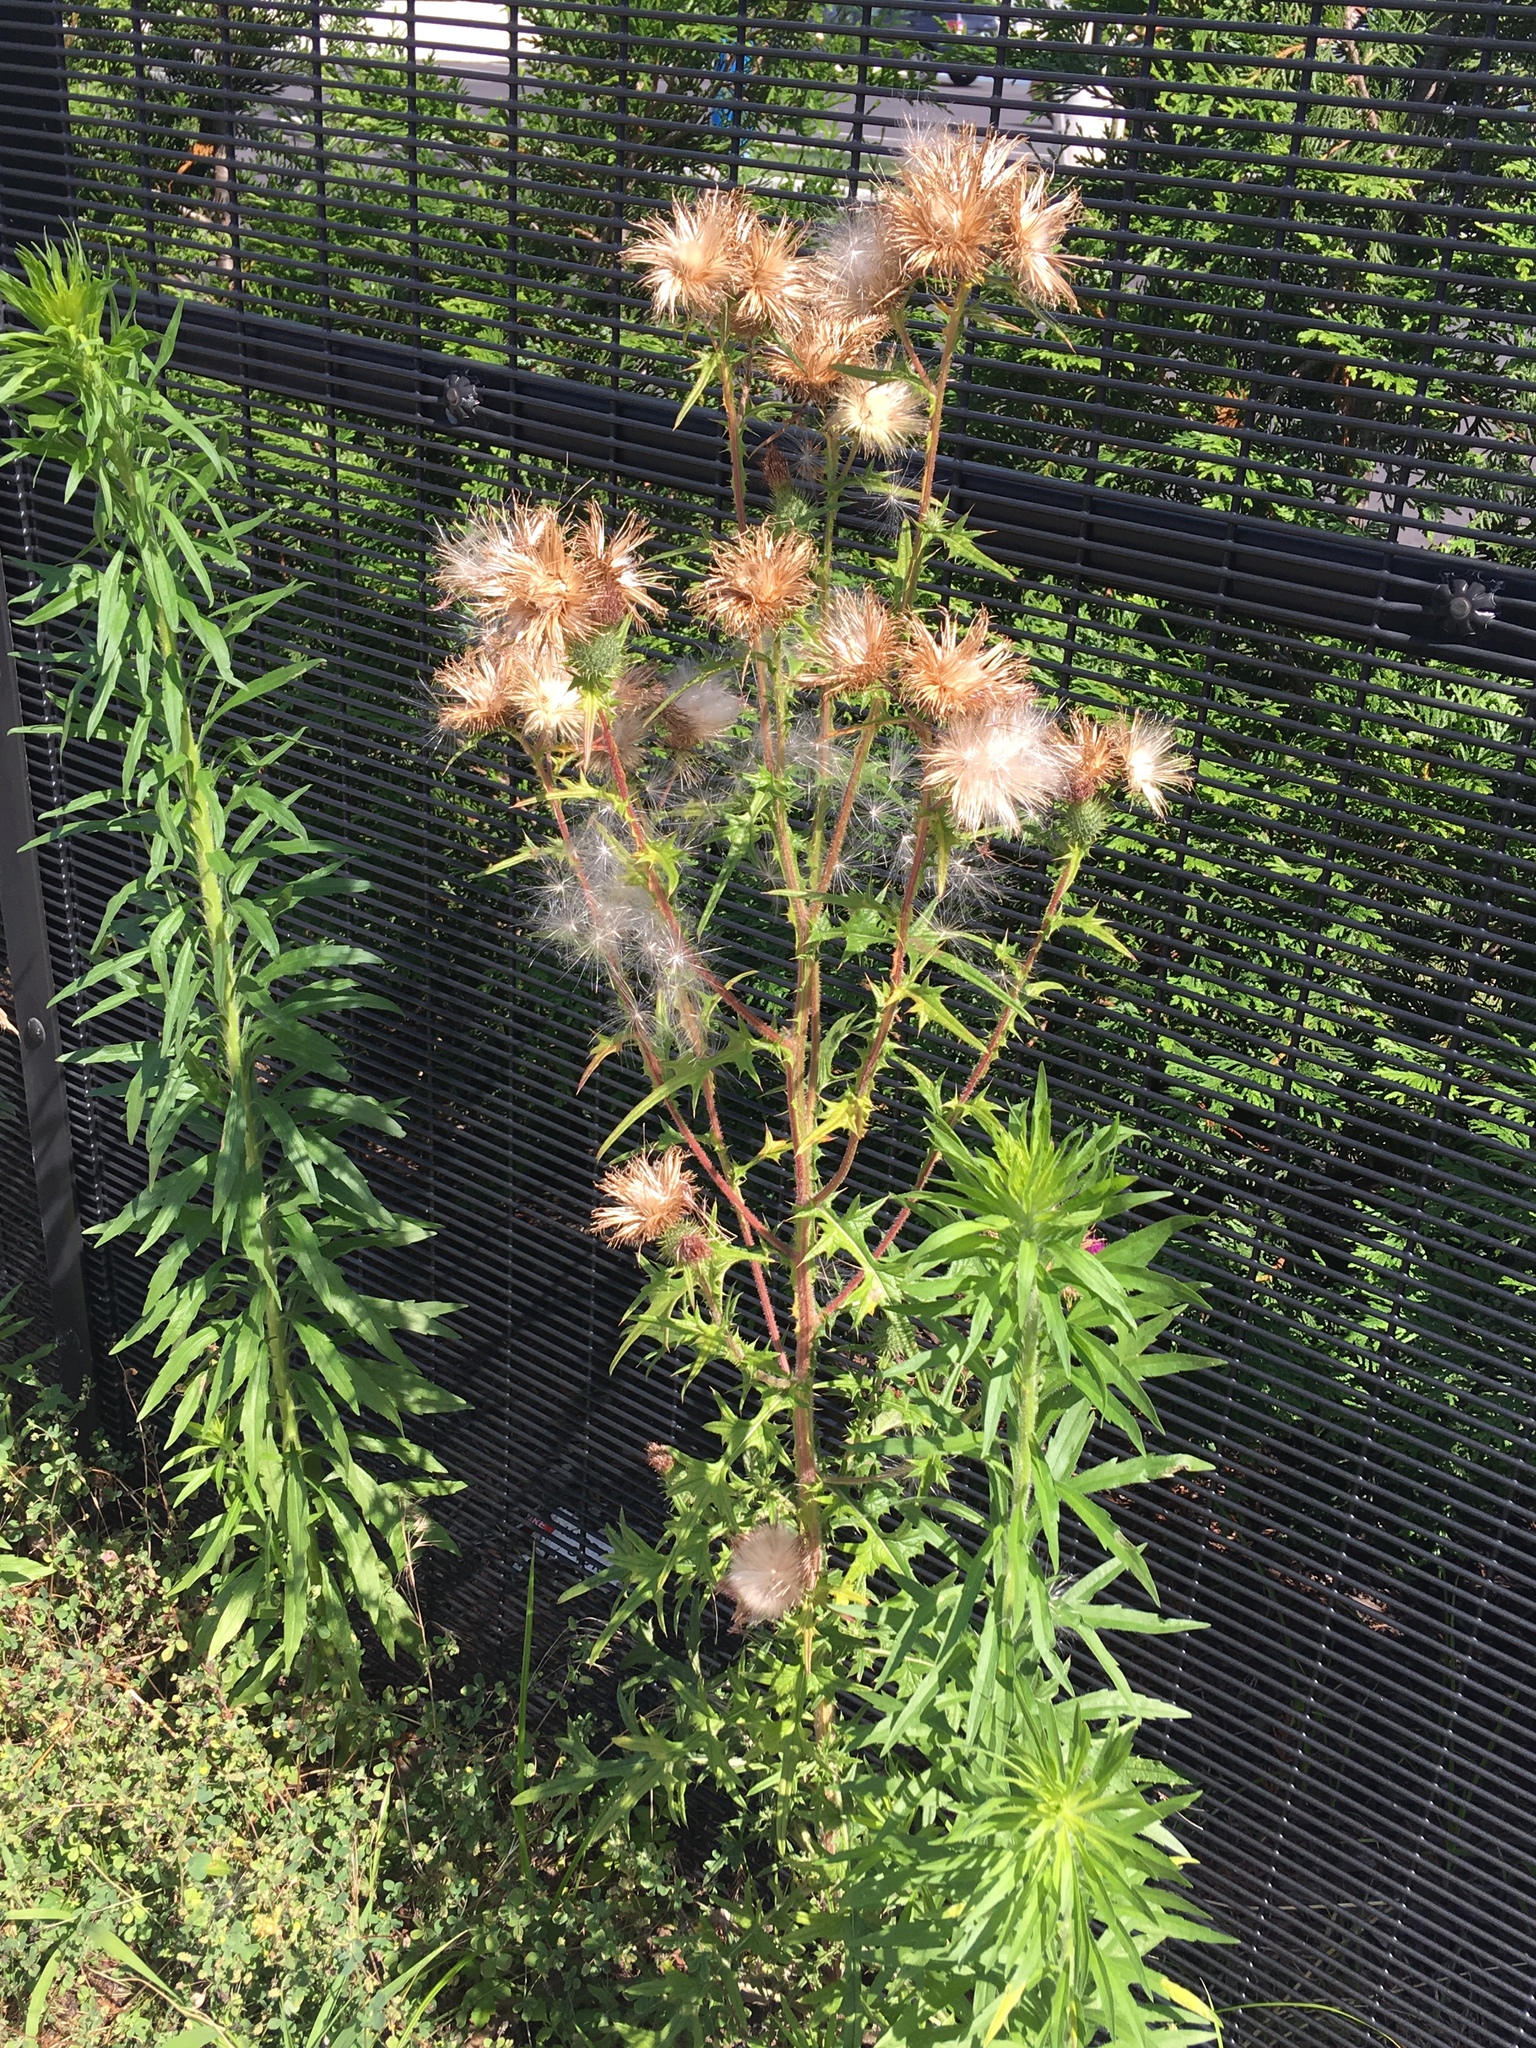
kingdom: Plantae
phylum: Tracheophyta
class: Magnoliopsida
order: Asterales
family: Asteraceae
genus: Cirsium
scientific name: Cirsium vulgare
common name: Bull thistle
